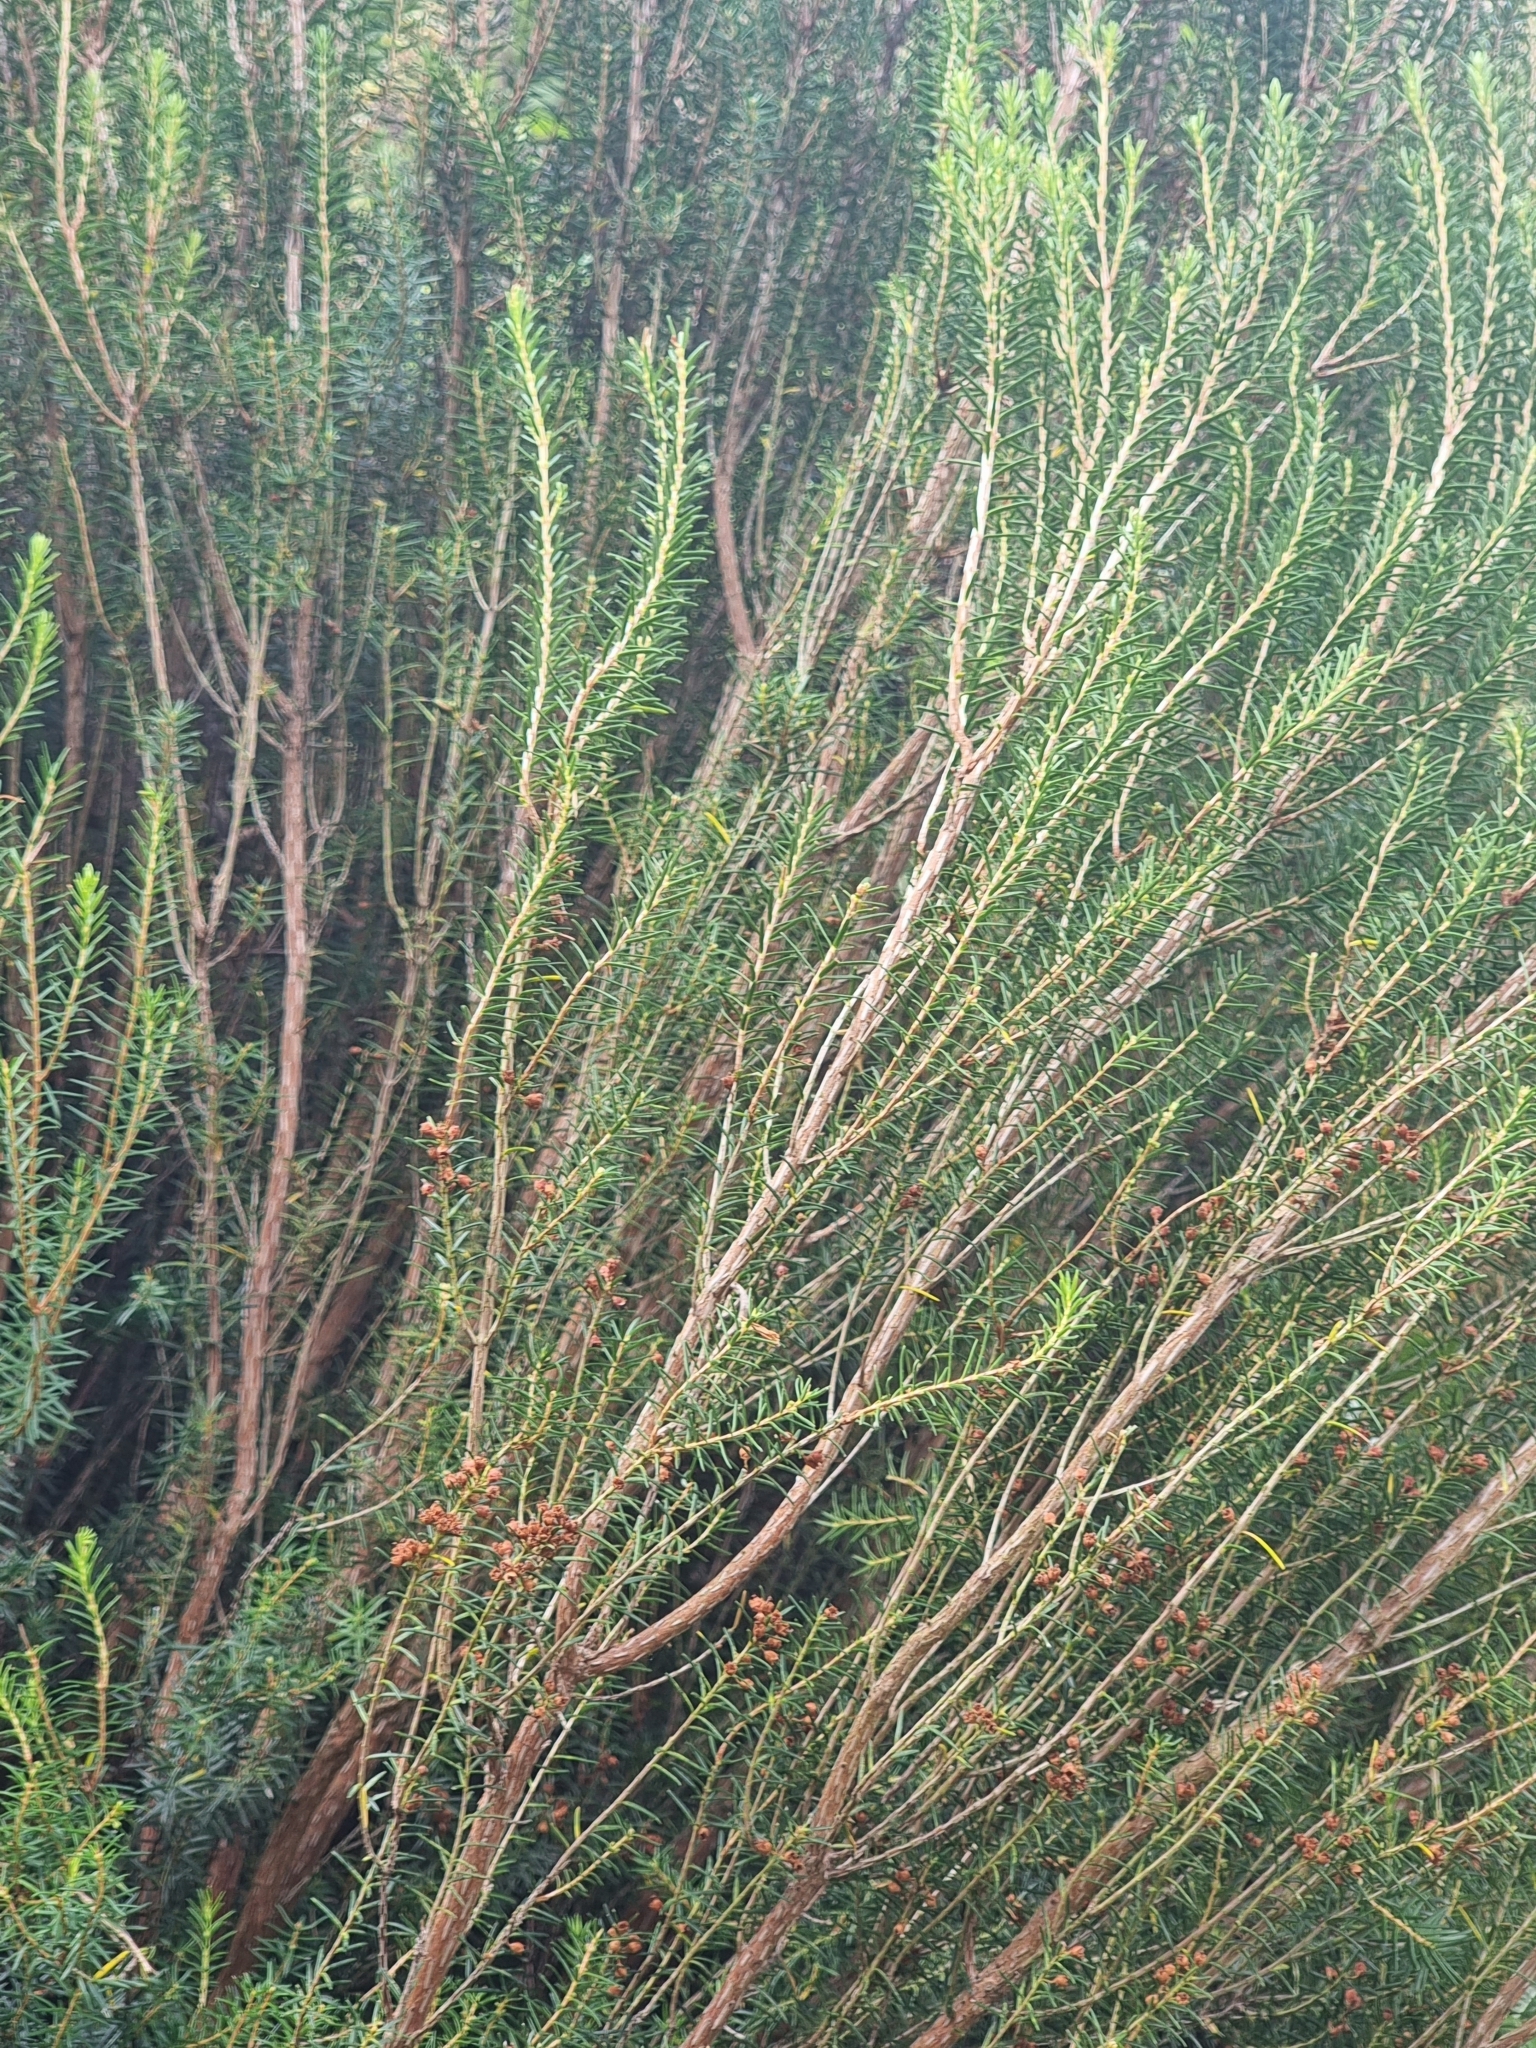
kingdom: Plantae
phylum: Tracheophyta
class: Magnoliopsida
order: Ericales
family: Ericaceae
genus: Erica
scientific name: Erica platycodon
